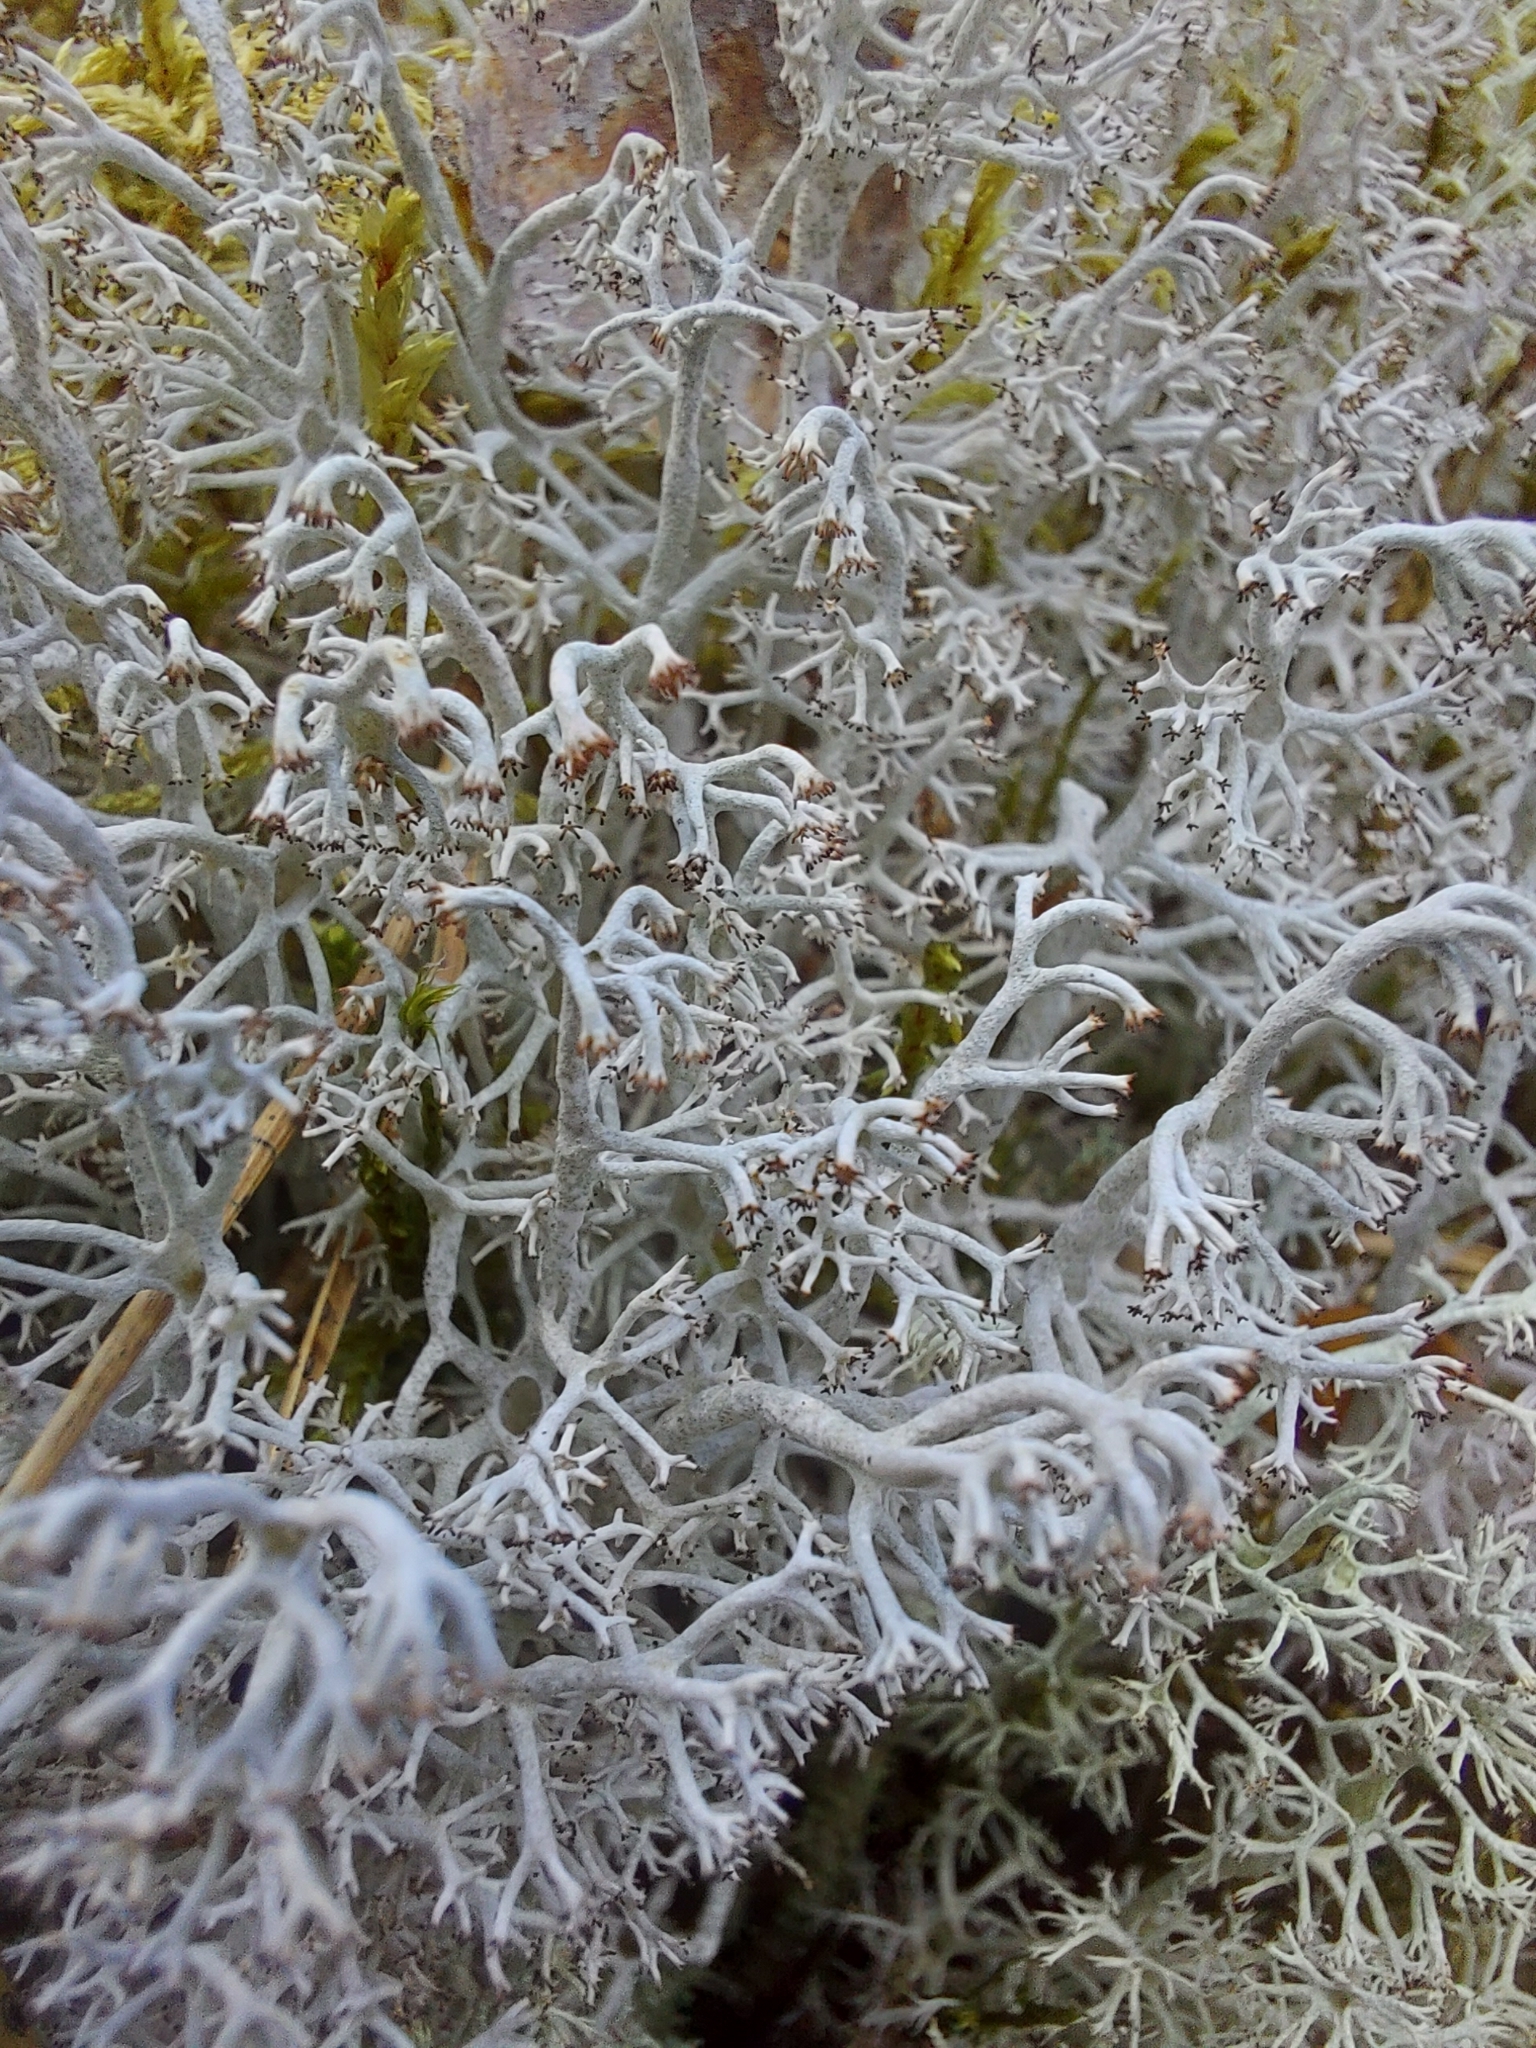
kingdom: Fungi
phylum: Ascomycota
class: Lecanoromycetes
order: Lecanorales
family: Cladoniaceae
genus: Cladonia
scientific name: Cladonia rangiferina
